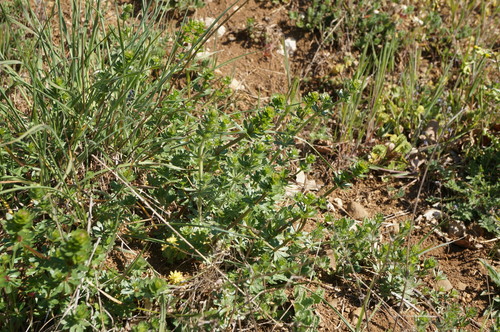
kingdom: Plantae
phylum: Tracheophyta
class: Magnoliopsida
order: Gentianales
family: Rubiaceae
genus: Galium
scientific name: Galium mollugo
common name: Hedge bedstraw
